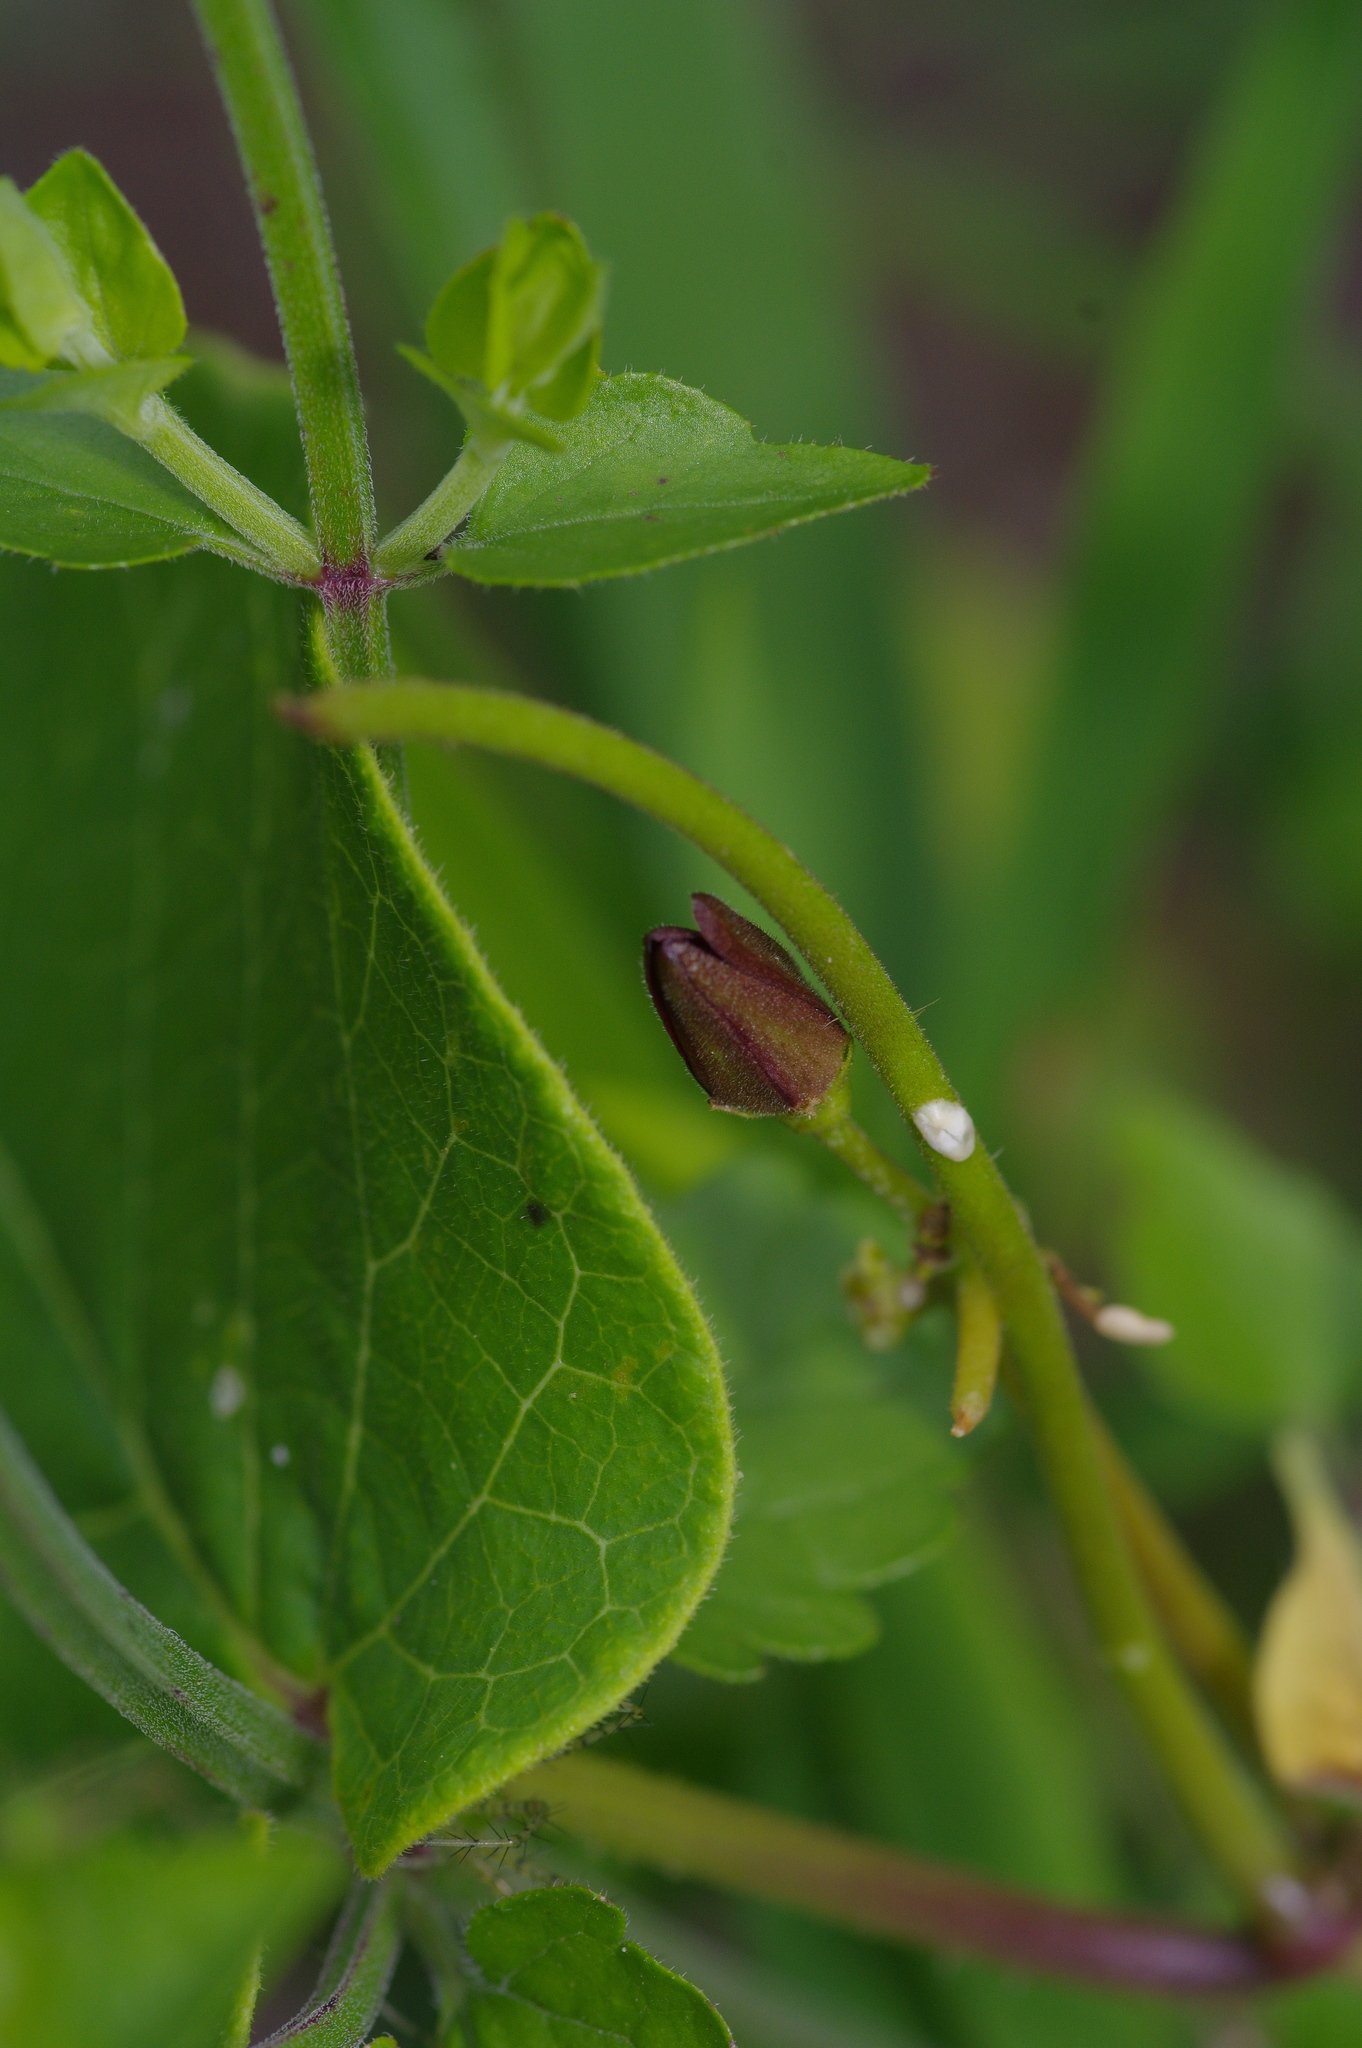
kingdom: Plantae
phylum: Tracheophyta
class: Magnoliopsida
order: Gentianales
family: Apocynaceae
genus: Matelea
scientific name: Matelea hirtelliflora
